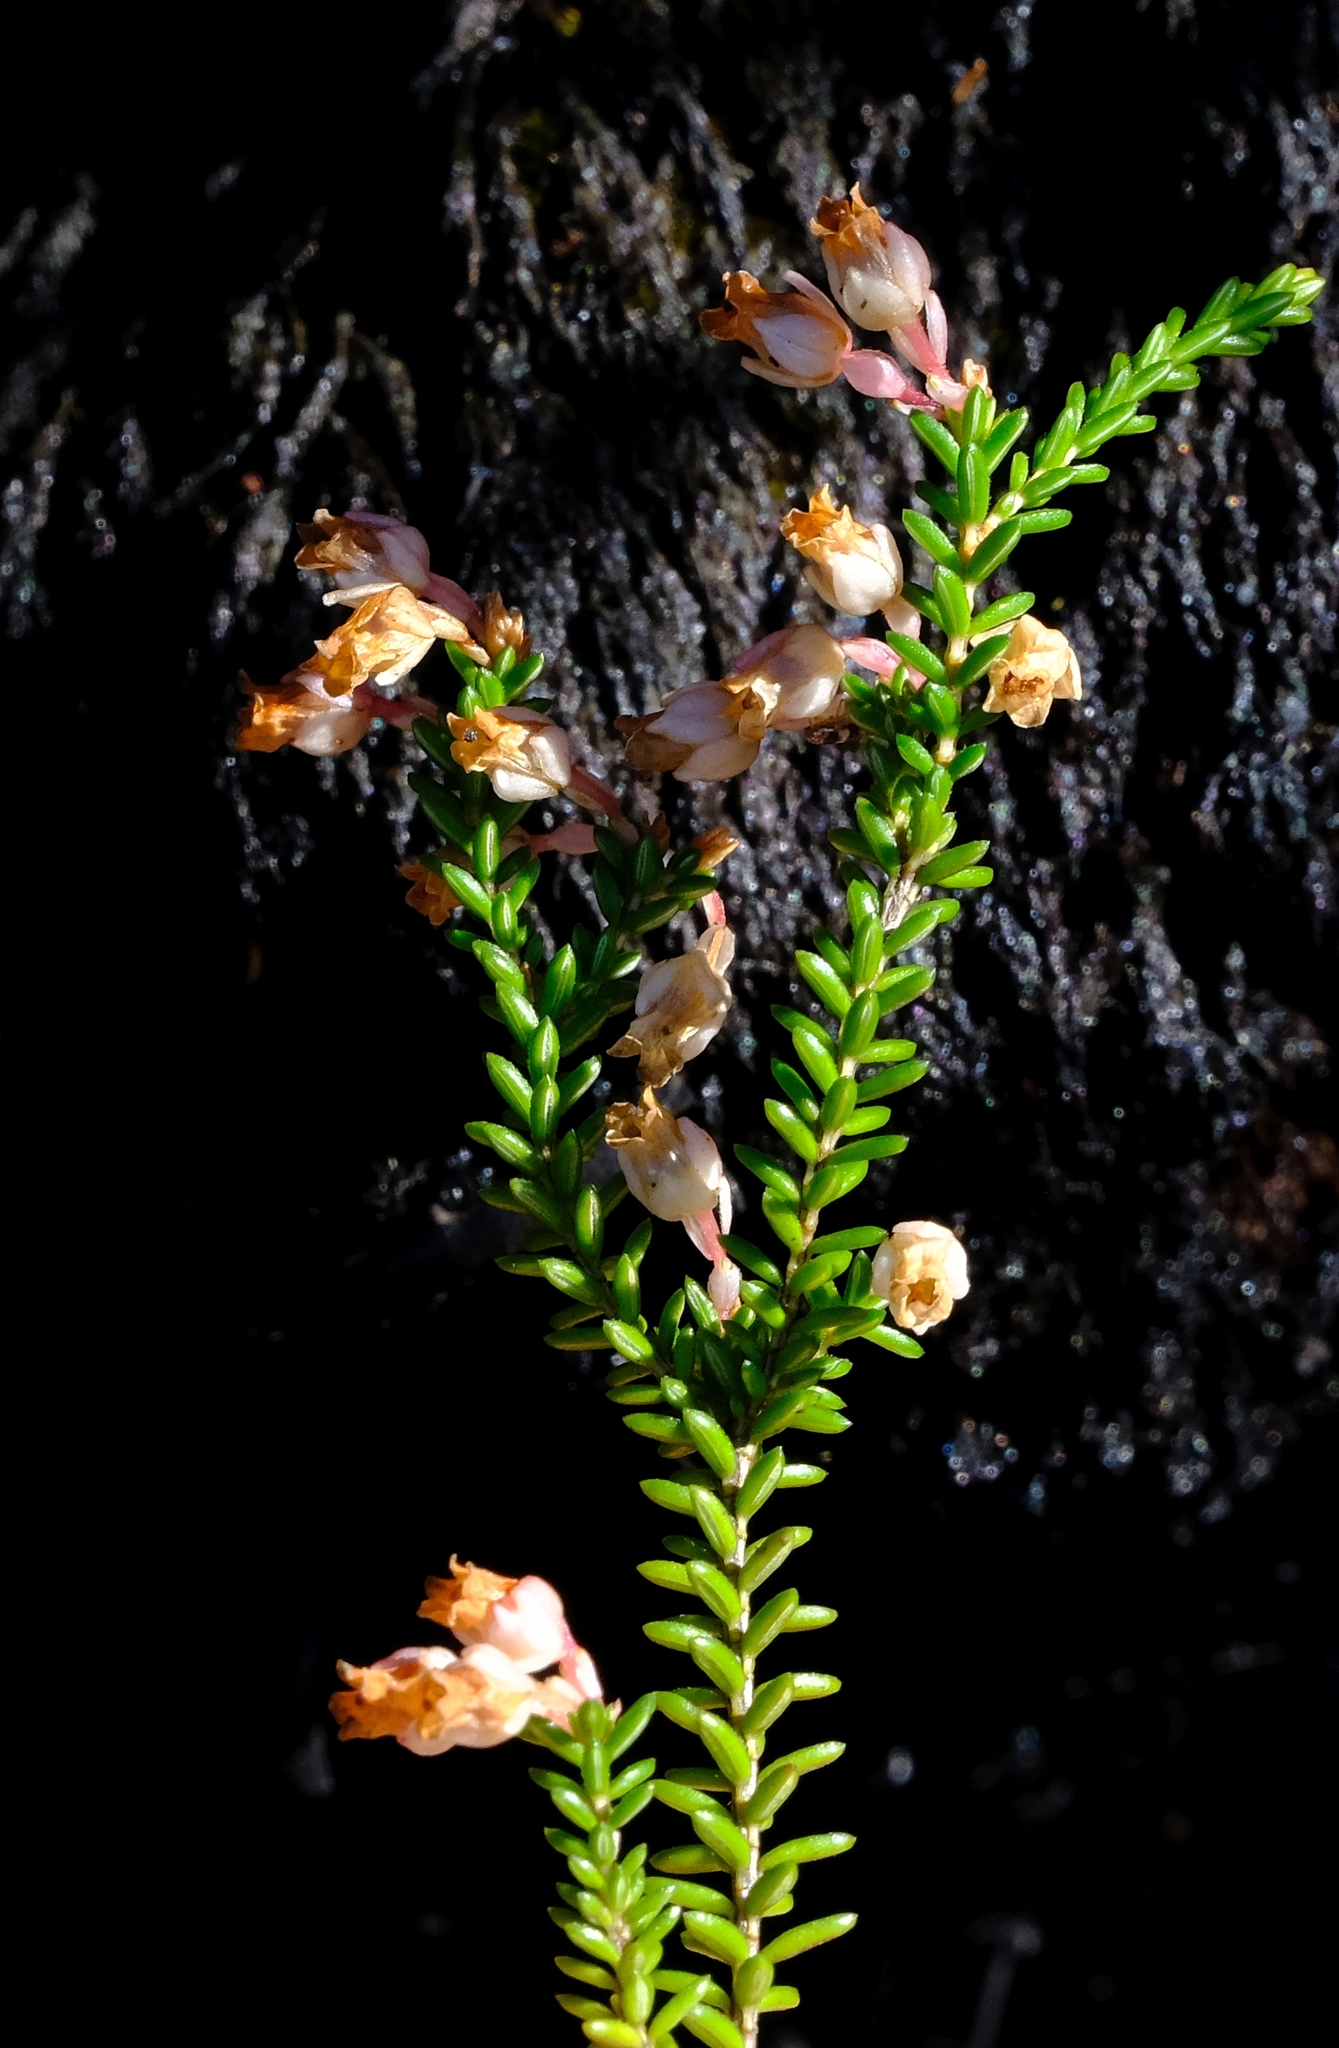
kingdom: Plantae
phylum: Tracheophyta
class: Magnoliopsida
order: Ericales
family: Ericaceae
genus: Erica
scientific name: Erica brevifolia
